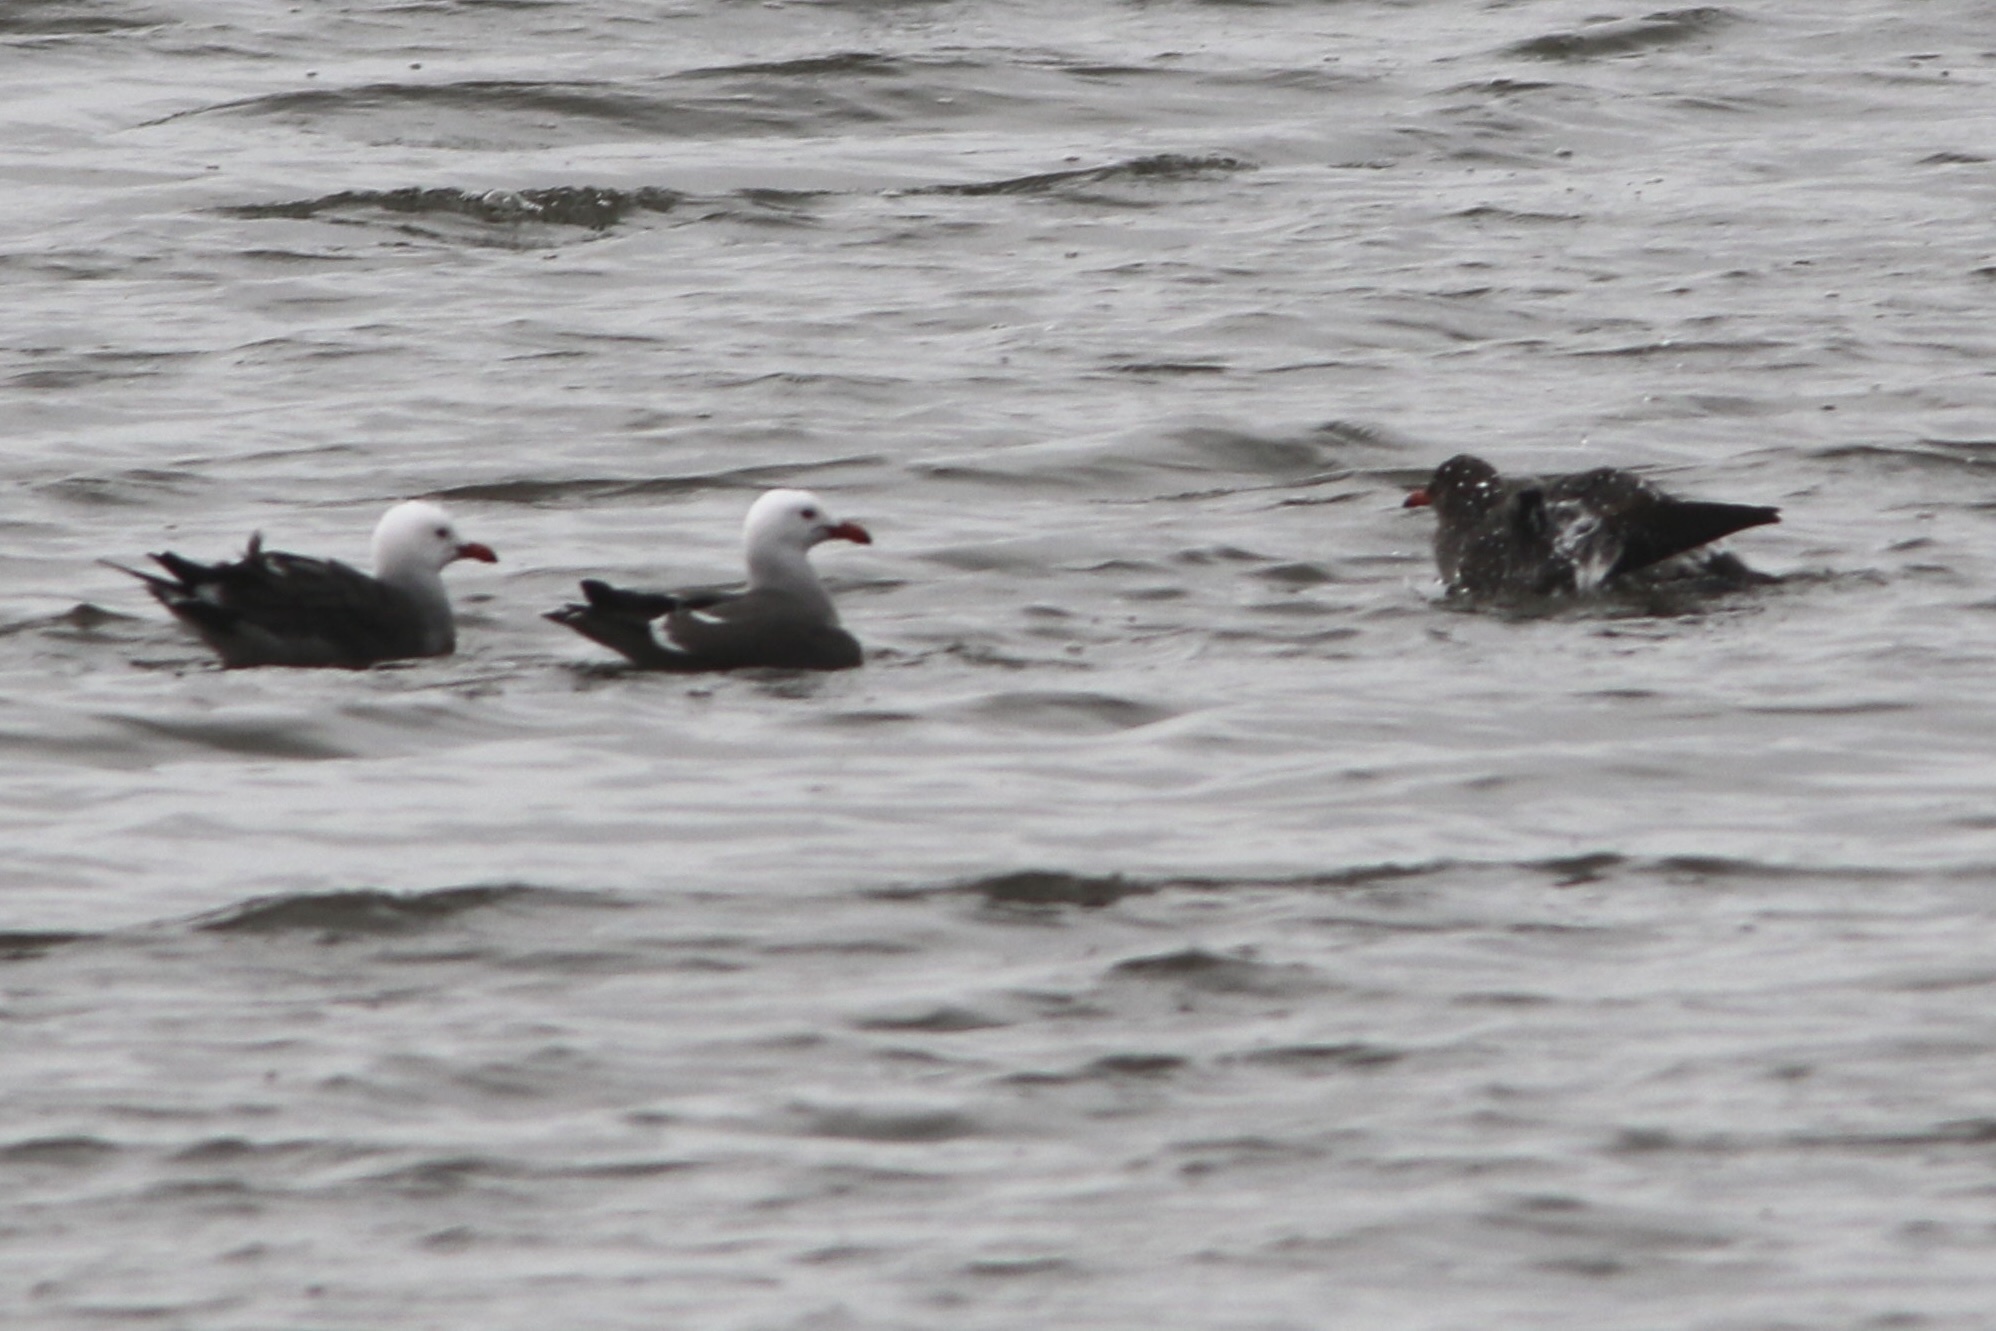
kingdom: Animalia
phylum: Chordata
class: Aves
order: Charadriiformes
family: Laridae
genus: Larus
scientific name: Larus heermanni
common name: Heermann's gull
